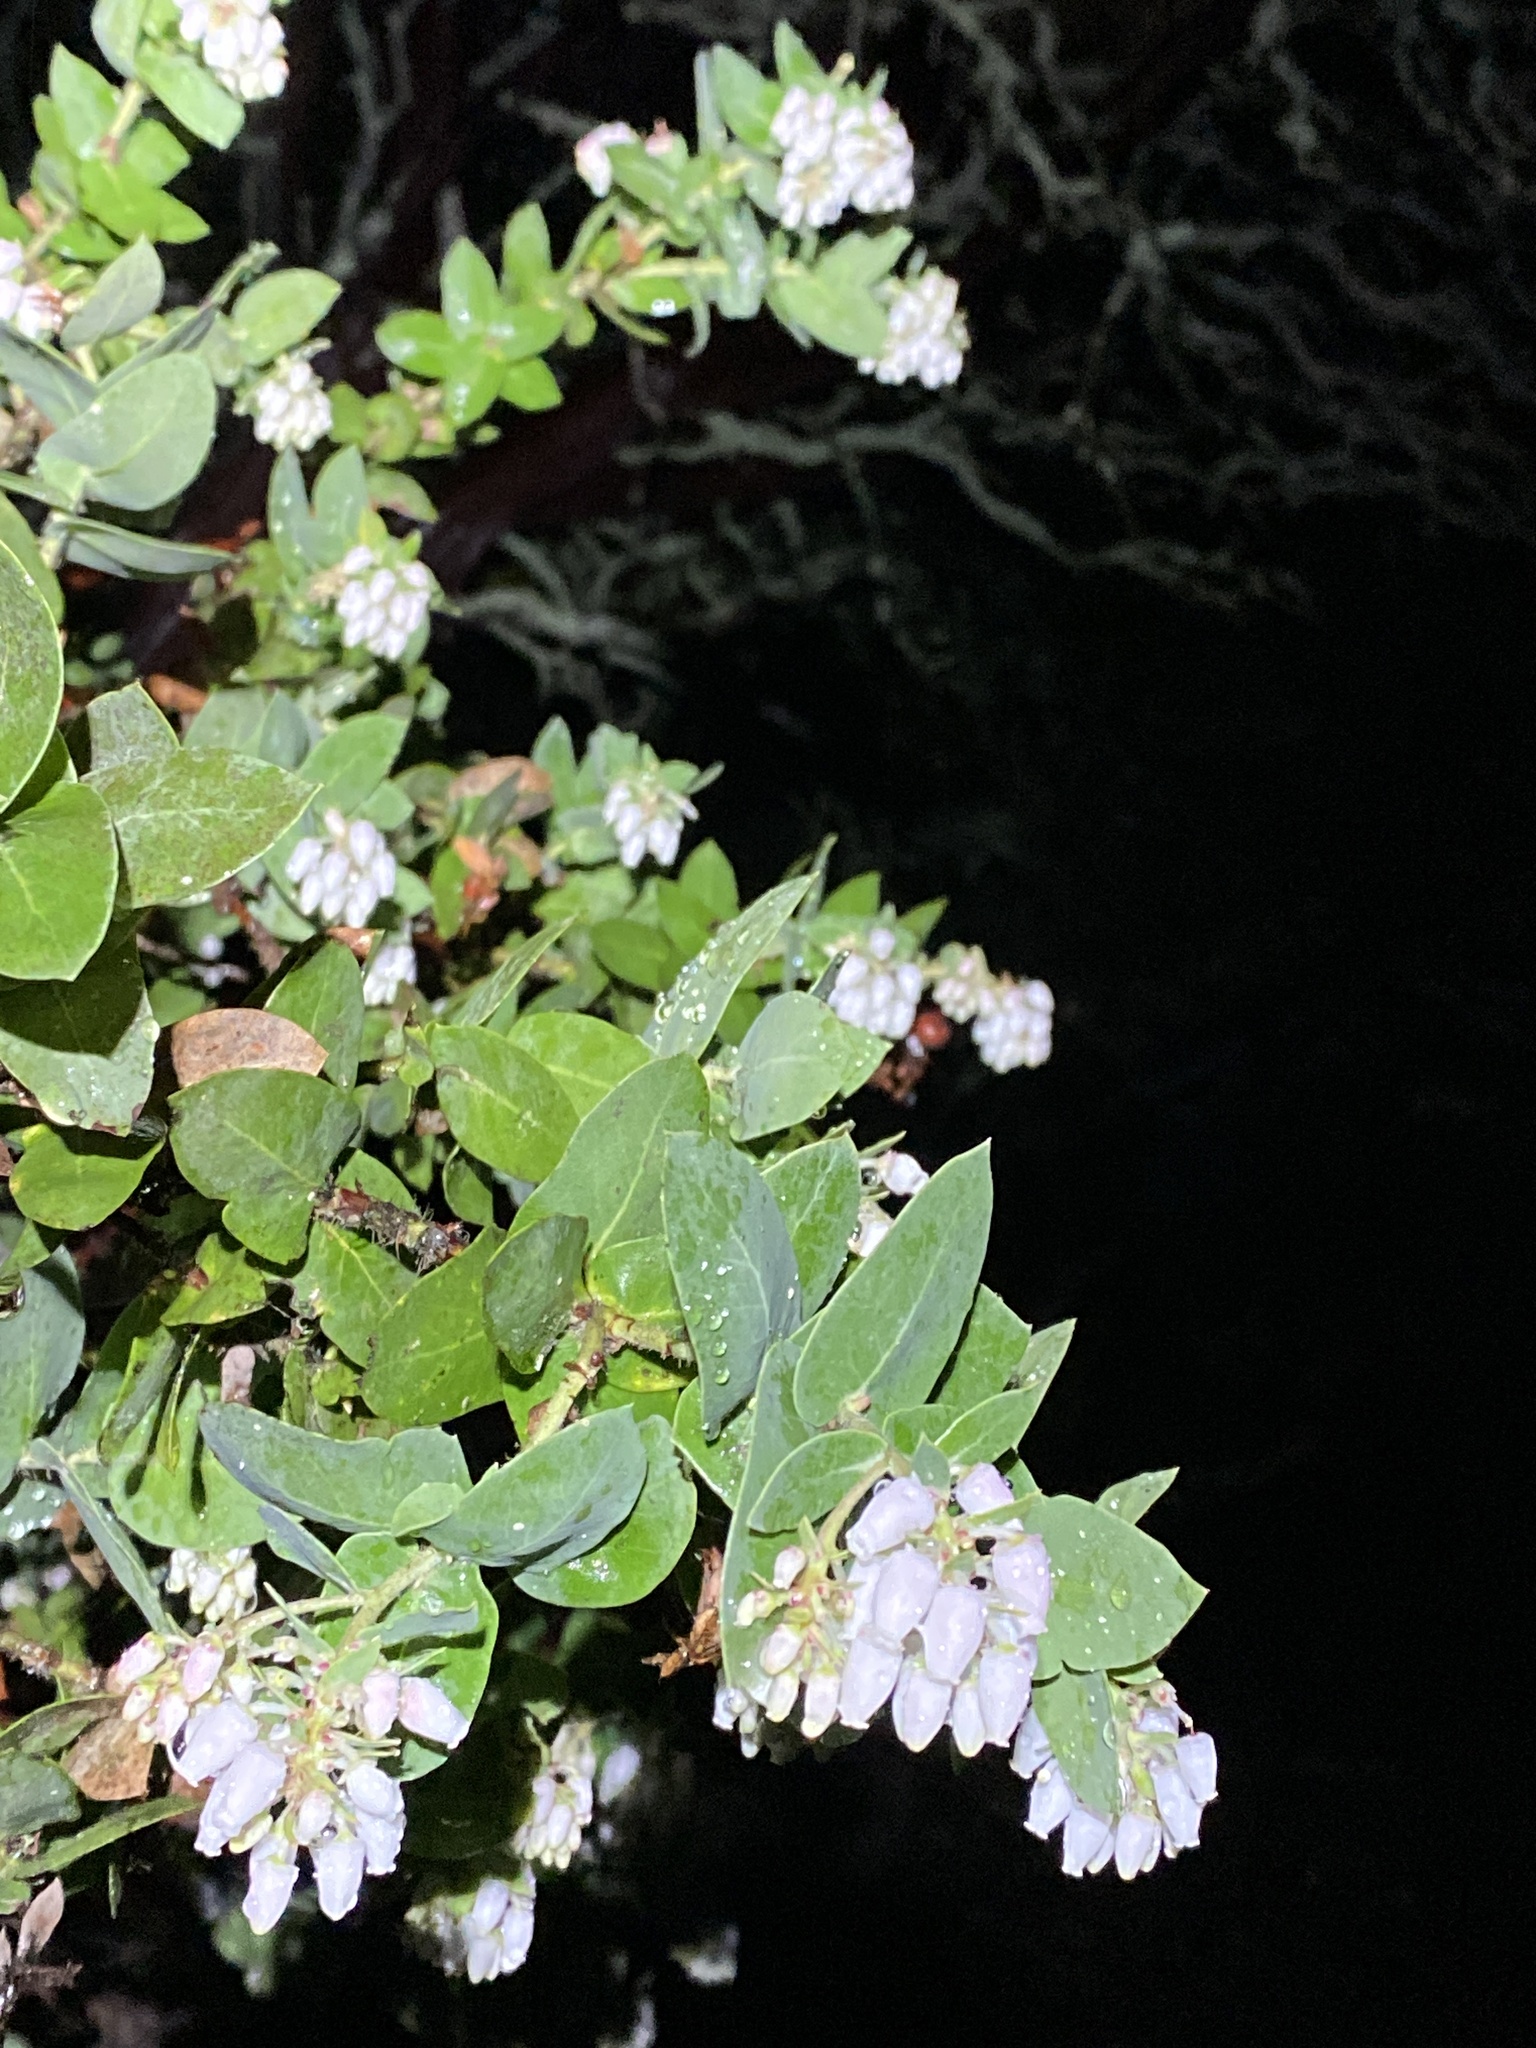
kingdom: Plantae
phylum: Tracheophyta
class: Magnoliopsida
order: Ericales
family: Ericaceae
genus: Arctostaphylos
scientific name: Arctostaphylos pallida
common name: Pallid manzanita
